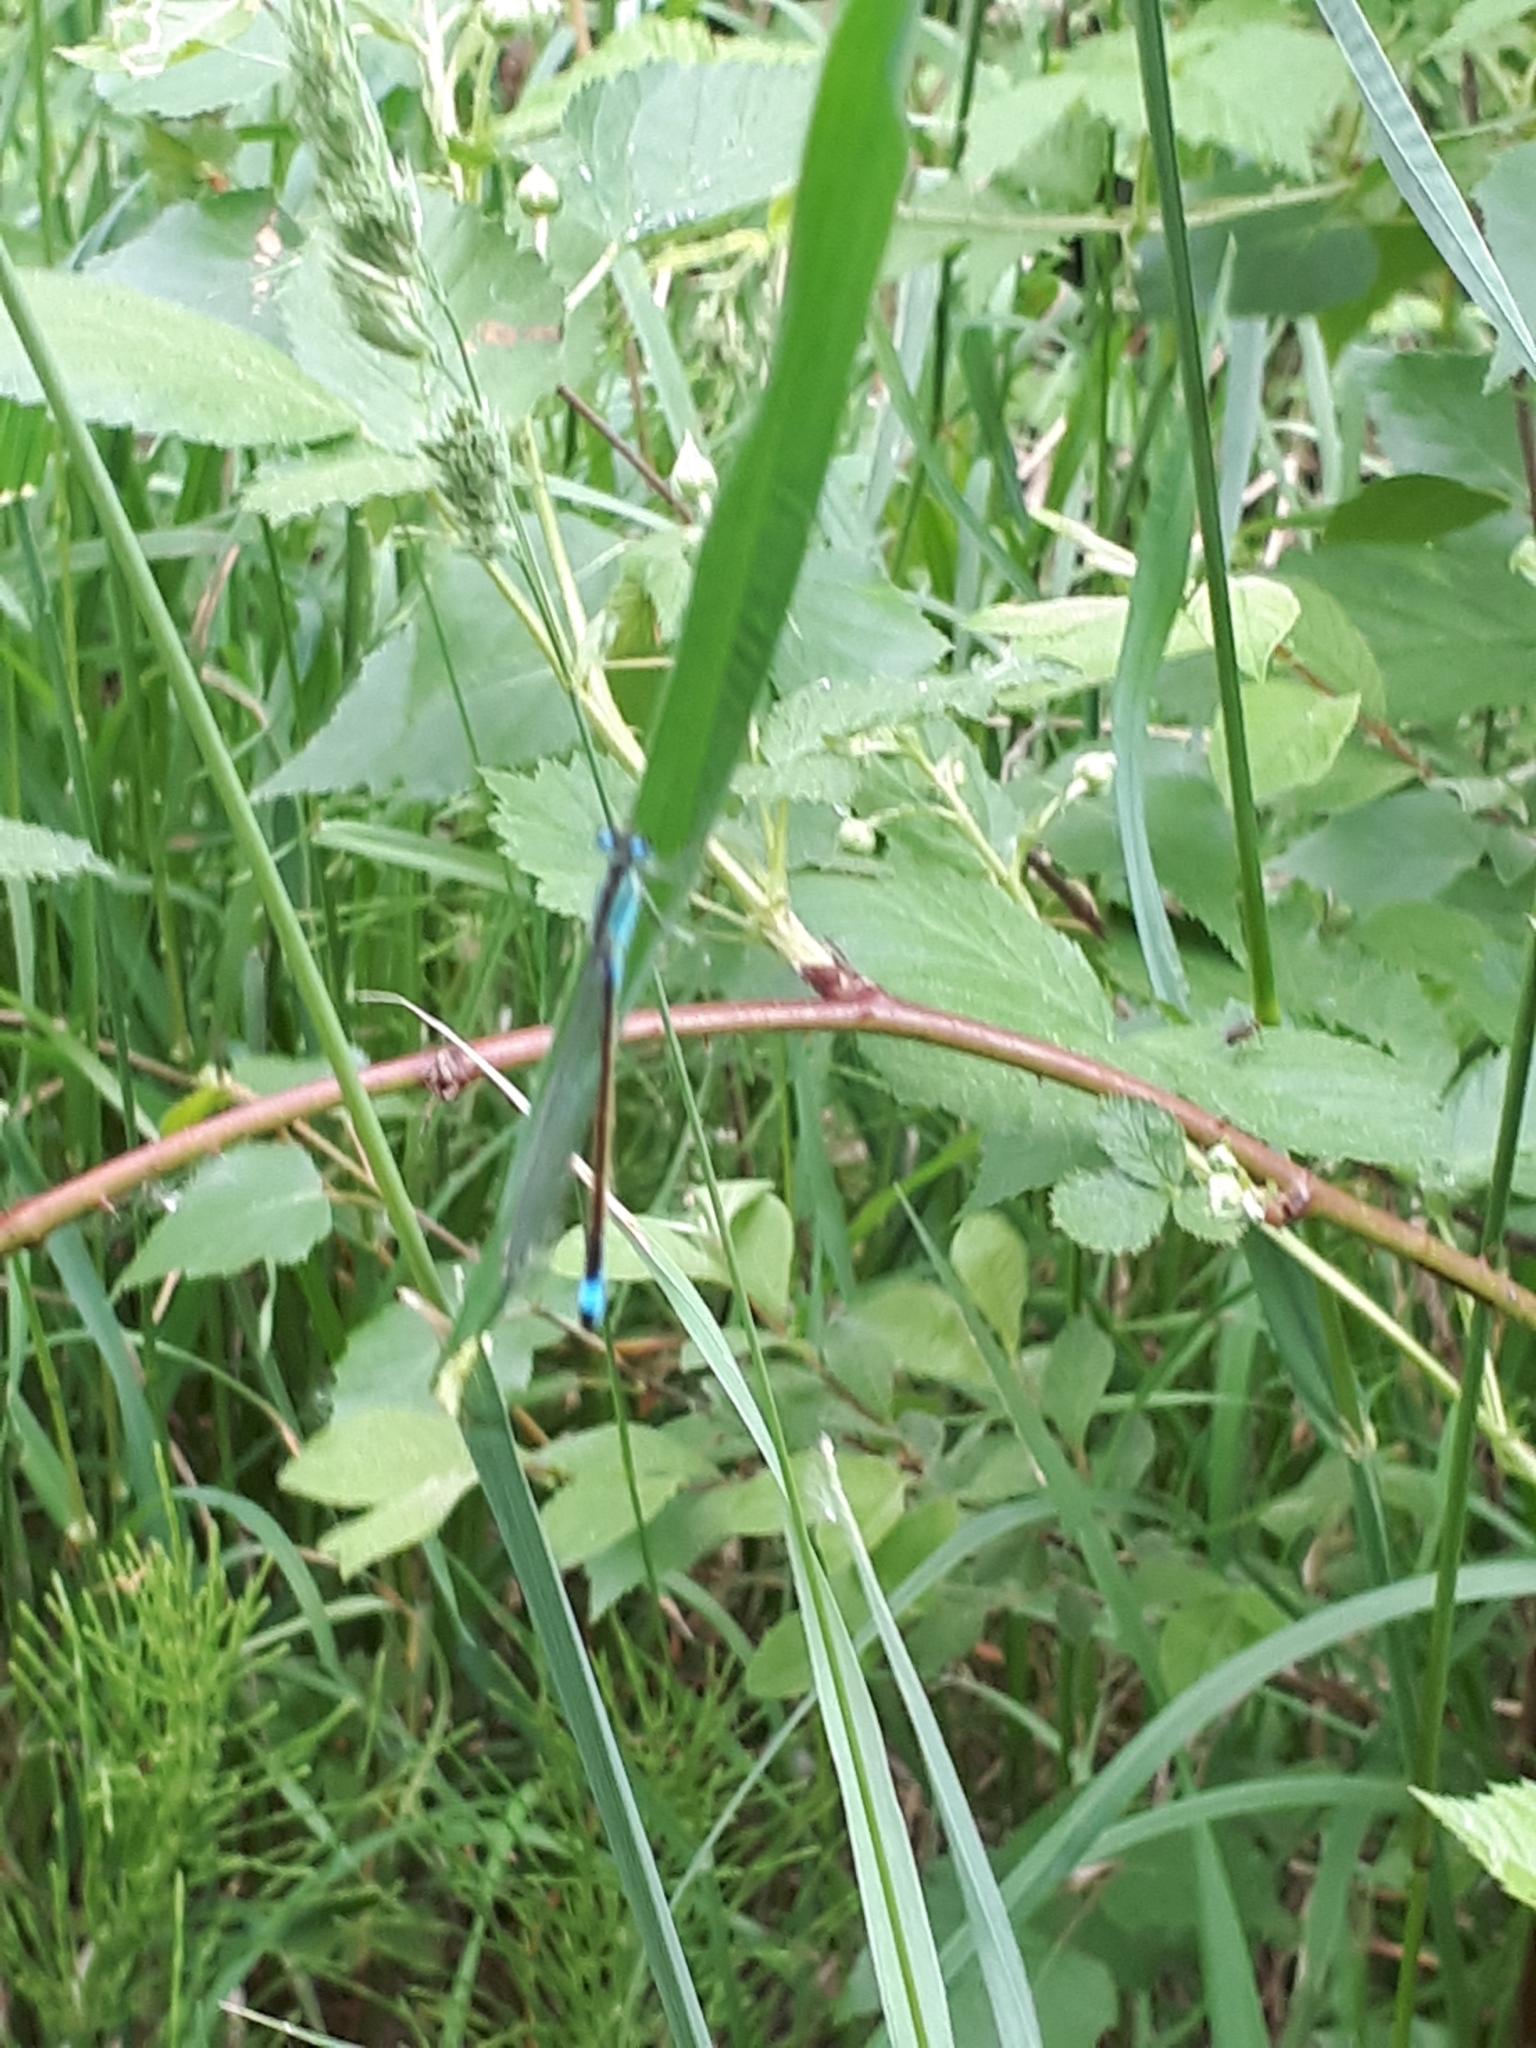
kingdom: Animalia
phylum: Arthropoda
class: Insecta
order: Odonata
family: Coenagrionidae
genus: Ischnura
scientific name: Ischnura elegans
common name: Blue-tailed damselfly
